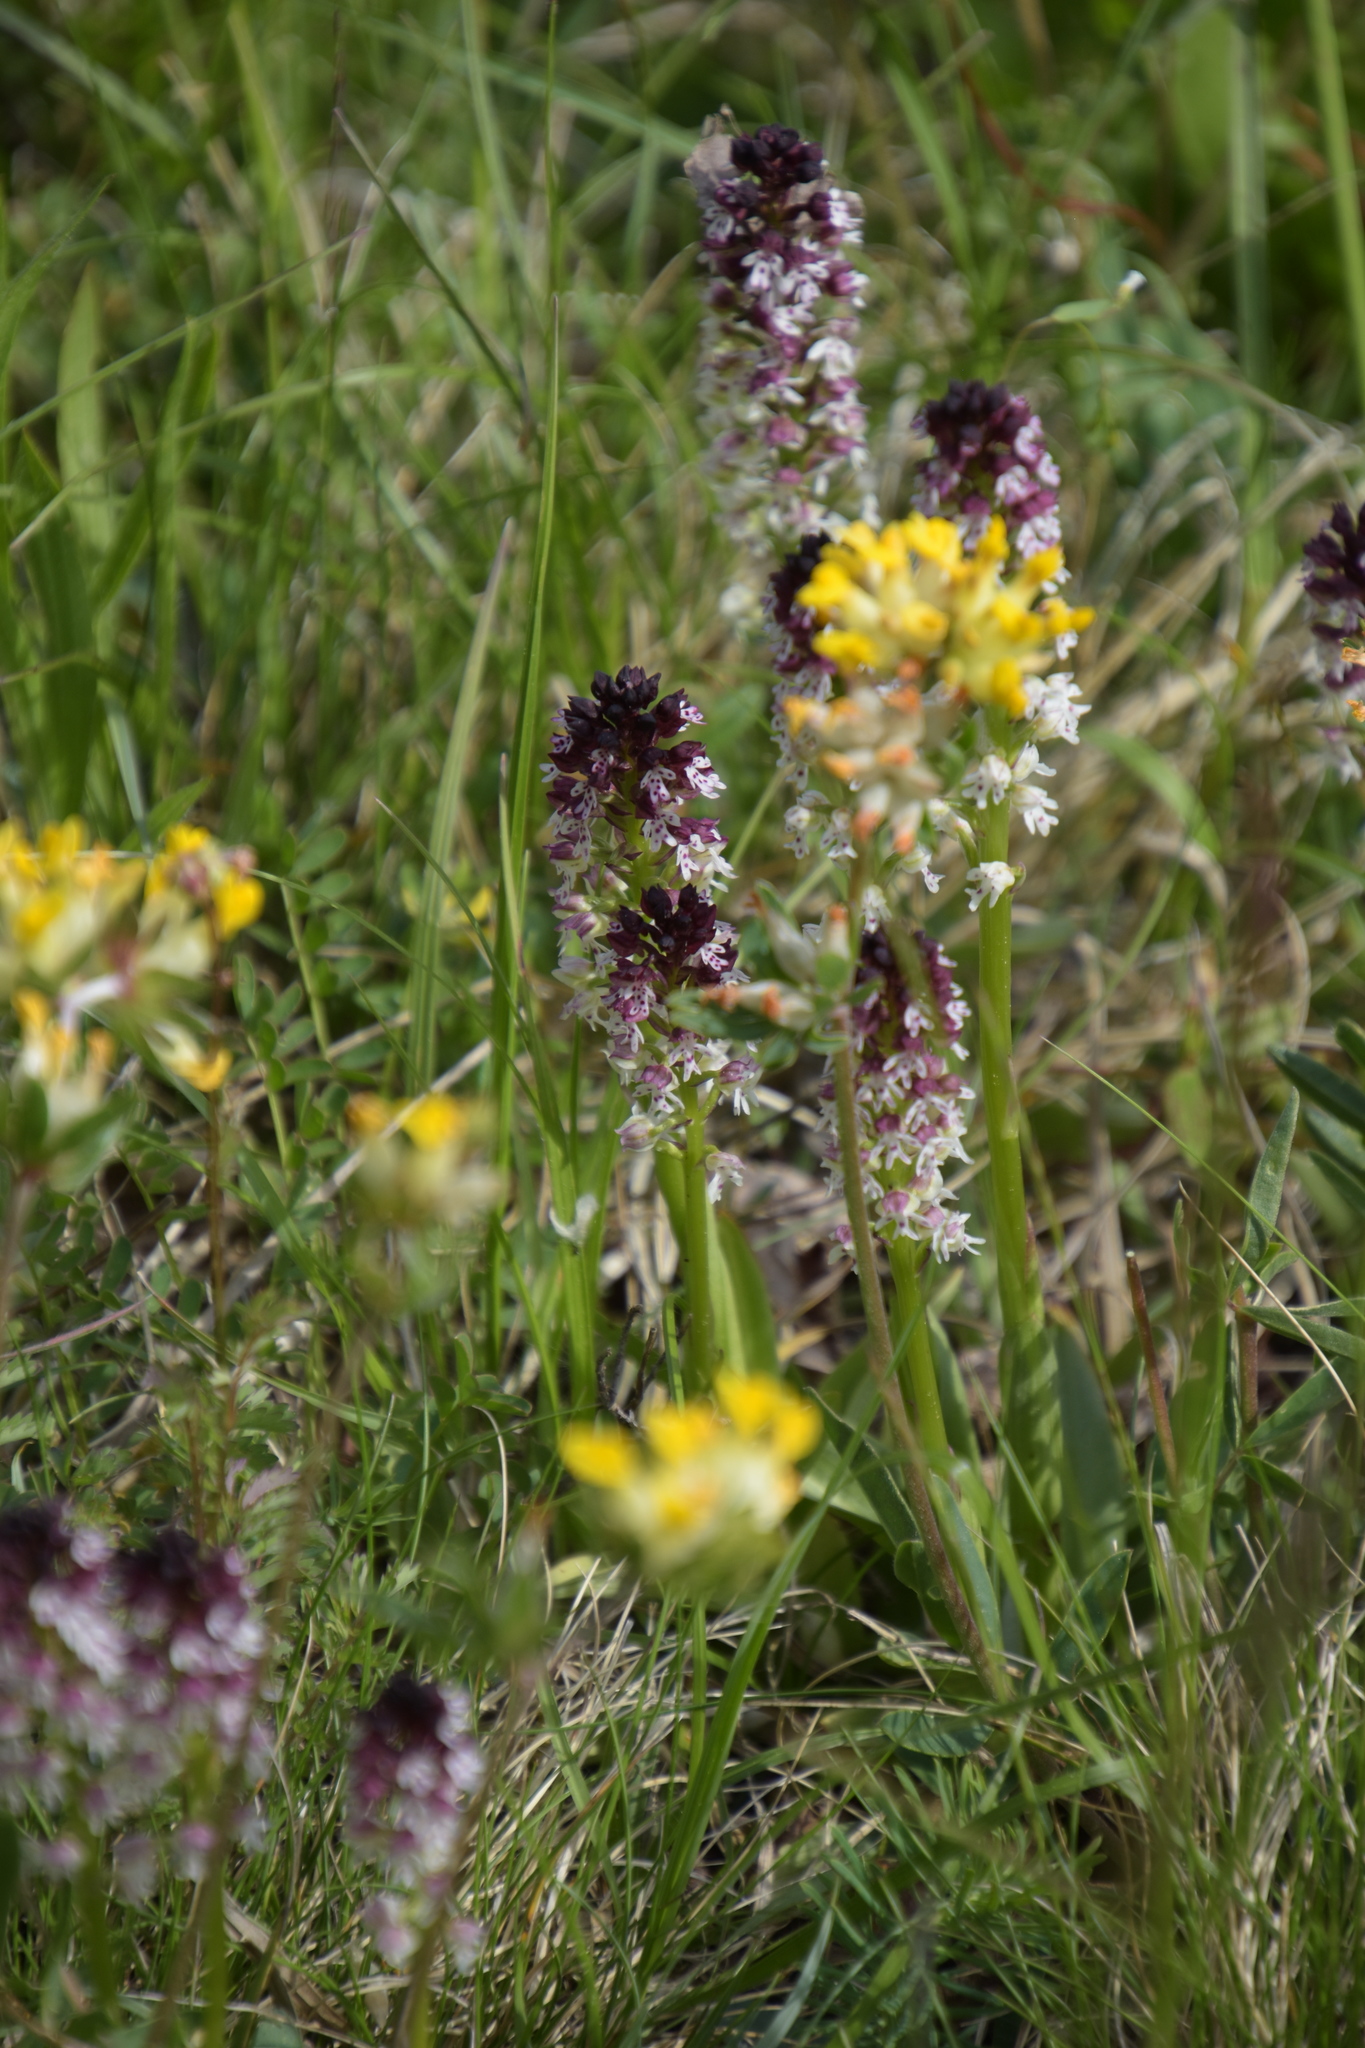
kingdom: Plantae
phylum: Tracheophyta
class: Liliopsida
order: Asparagales
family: Orchidaceae
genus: Neotinea
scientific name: Neotinea ustulata
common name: Burnt orchid
